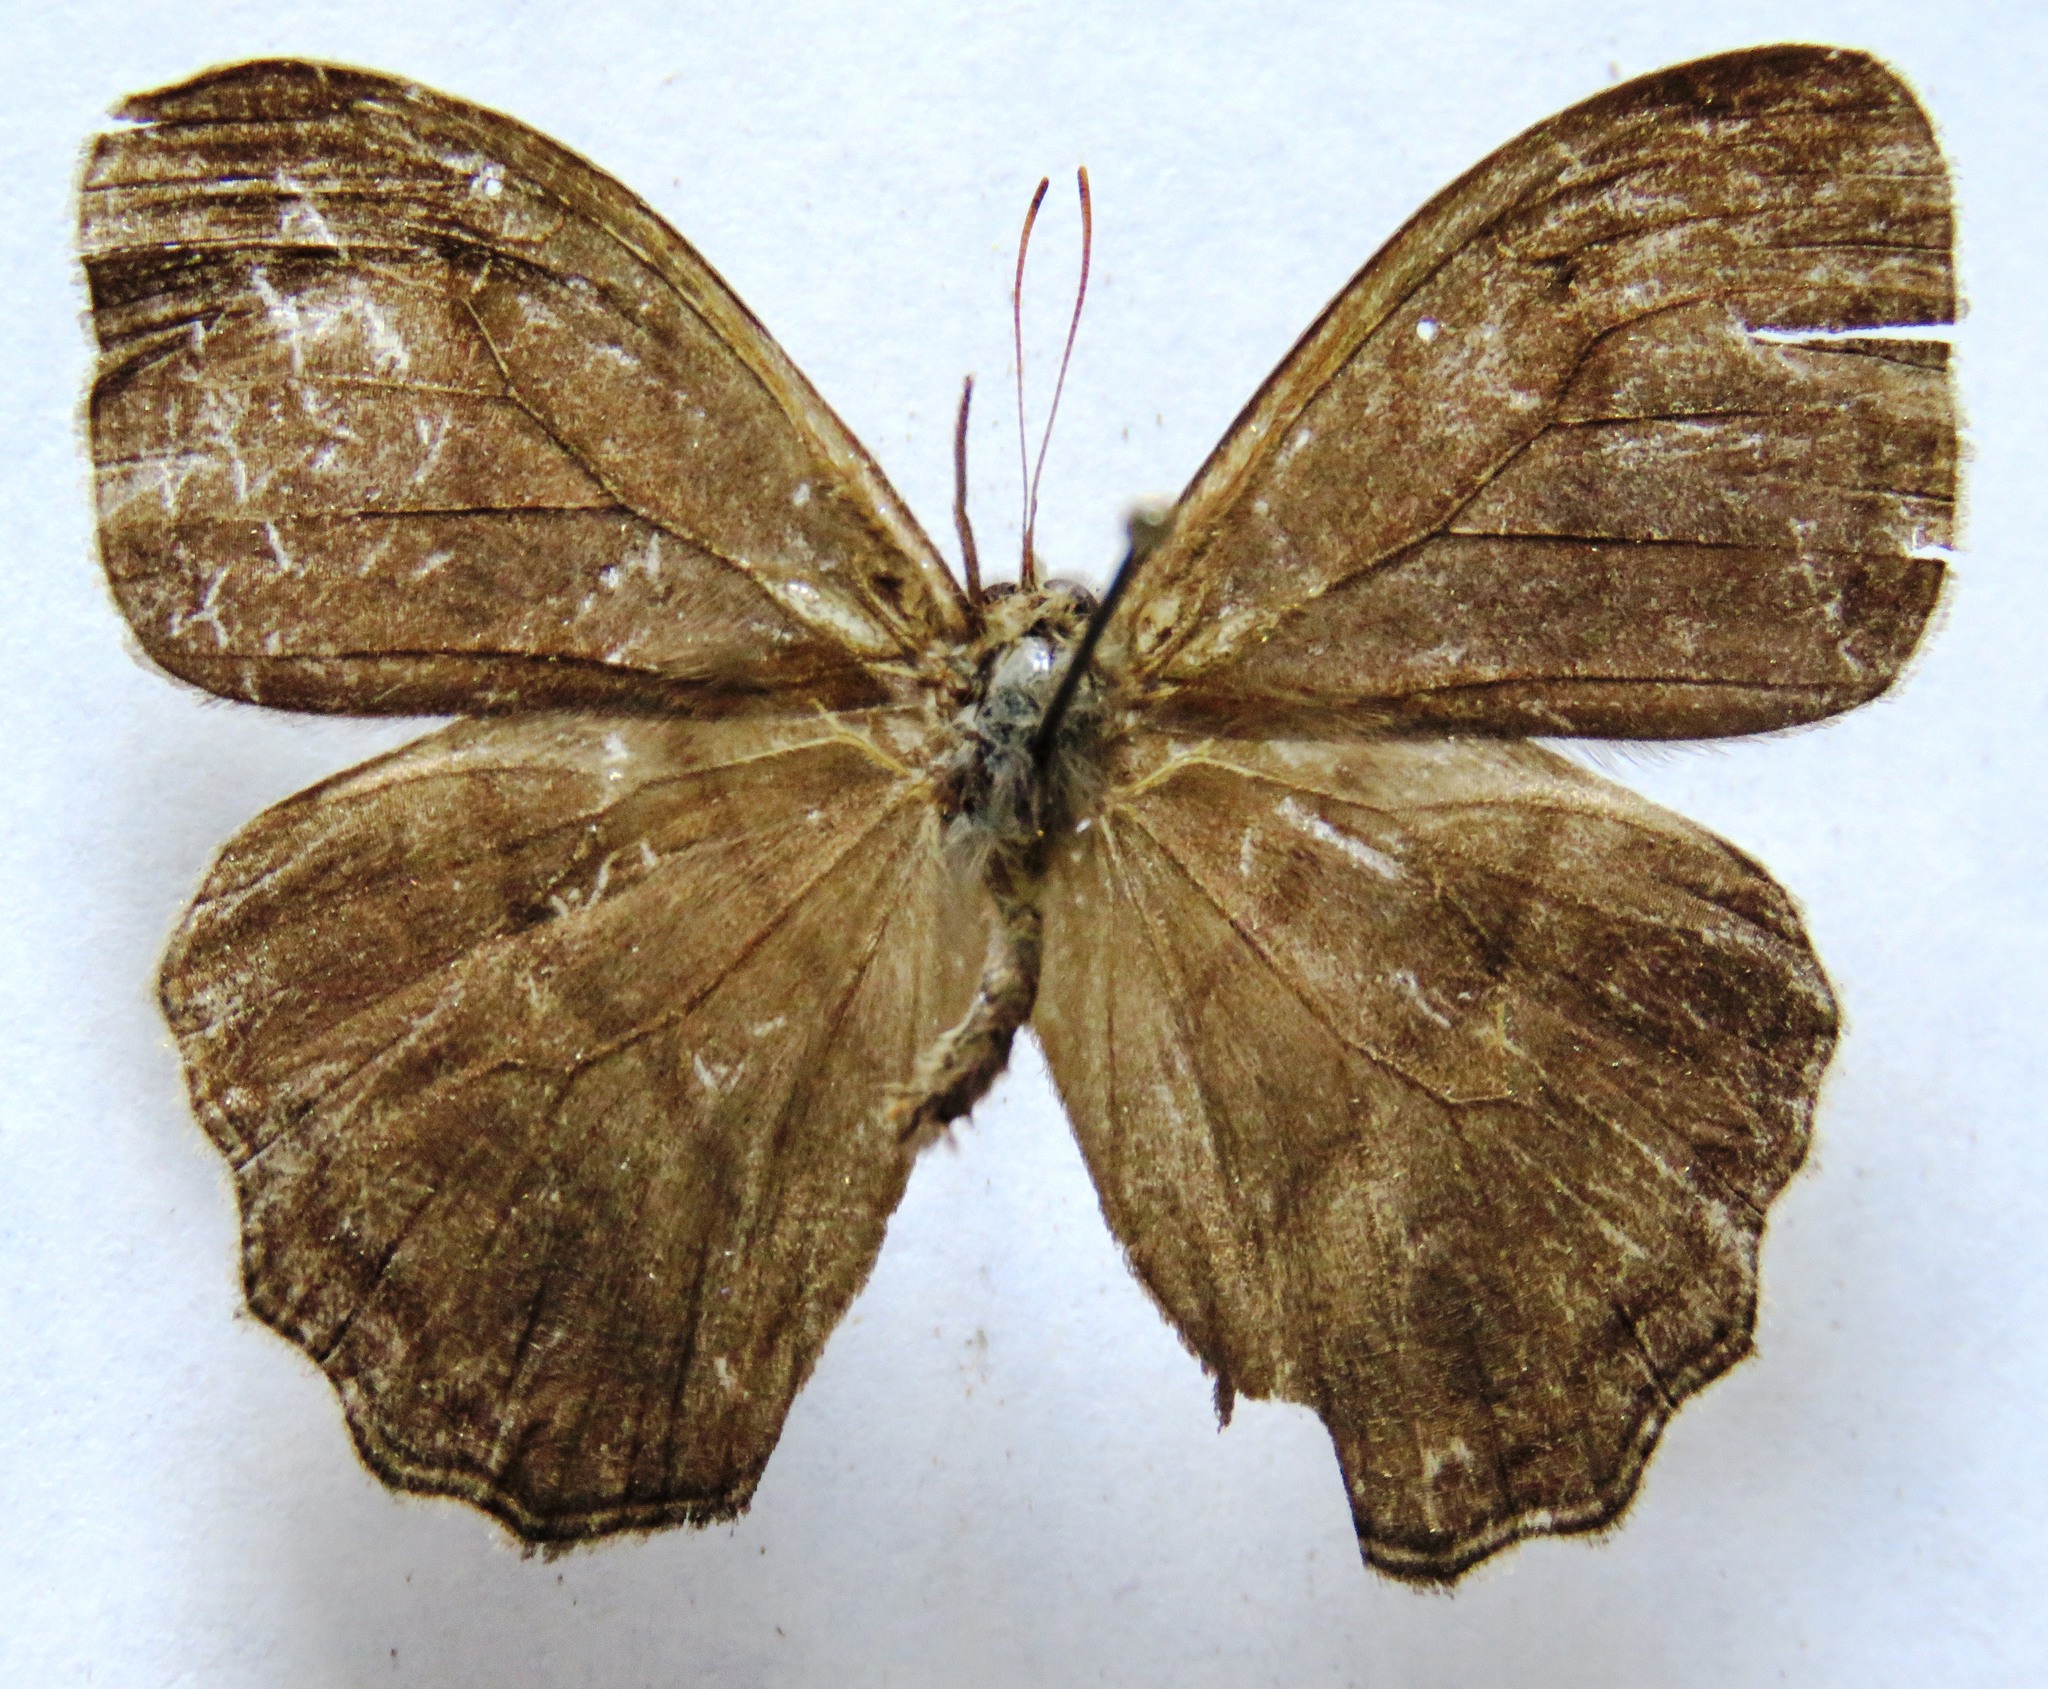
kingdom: Animalia
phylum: Arthropoda
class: Insecta
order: Lepidoptera
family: Nymphalidae
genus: Magneuptychia
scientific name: Magneuptychia libye
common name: Blue-gray satyr
